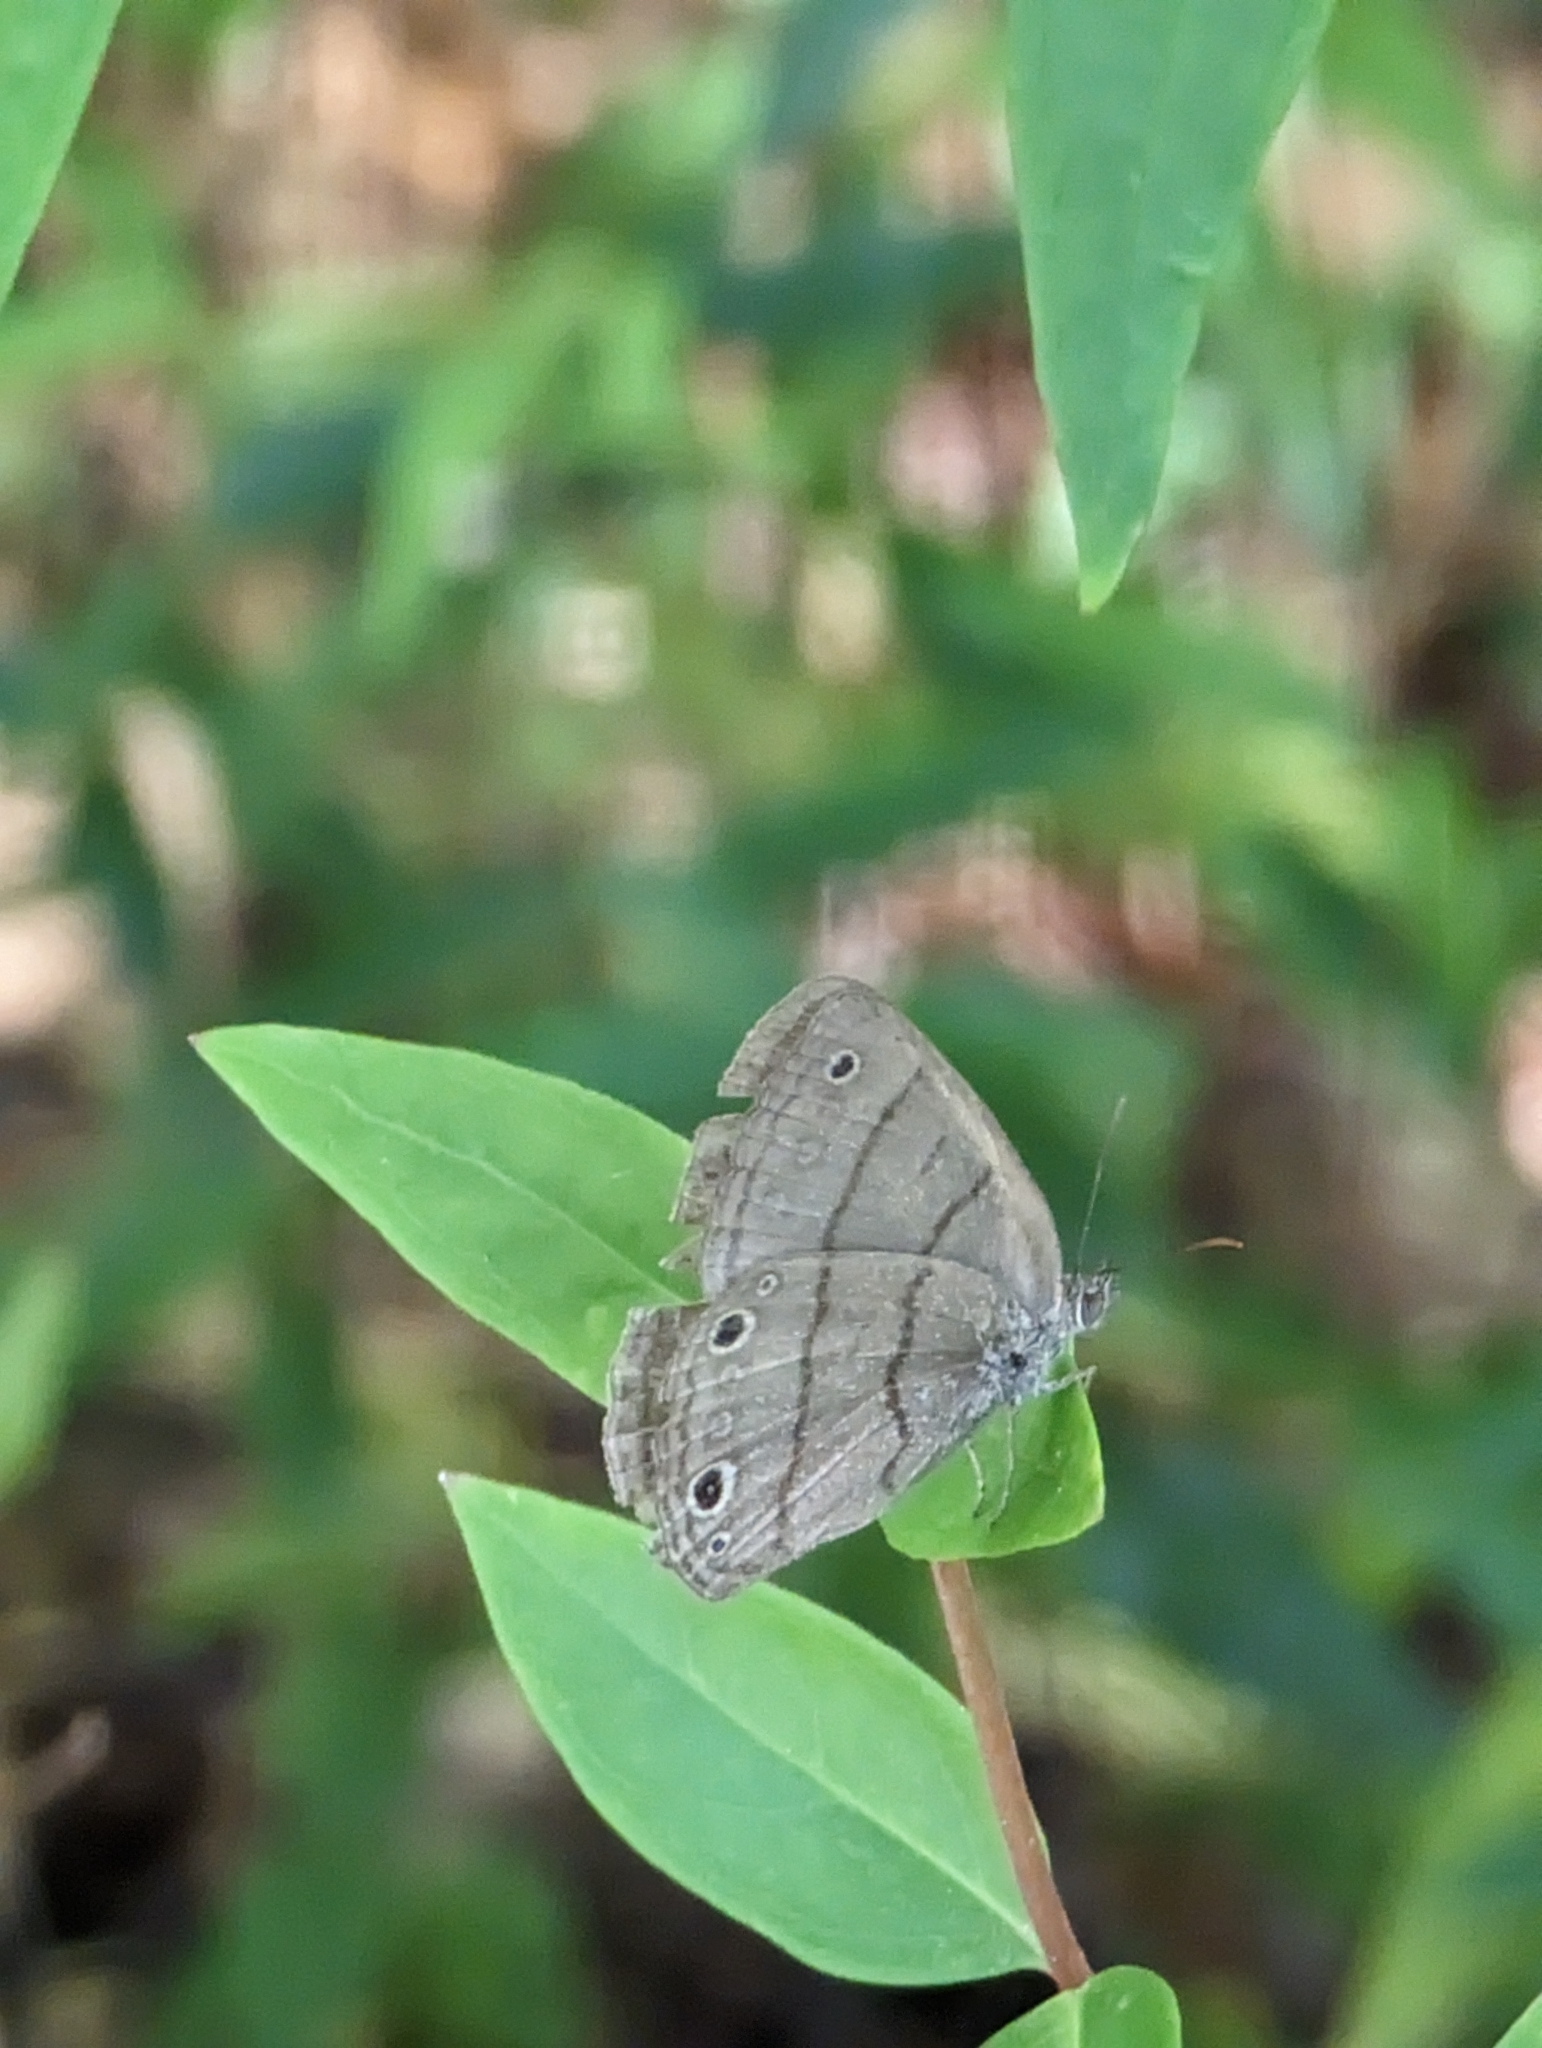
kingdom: Animalia
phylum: Arthropoda
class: Insecta
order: Lepidoptera
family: Nymphalidae
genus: Hermeuptychia
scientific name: Hermeuptychia hermes
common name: Hermes satyr
